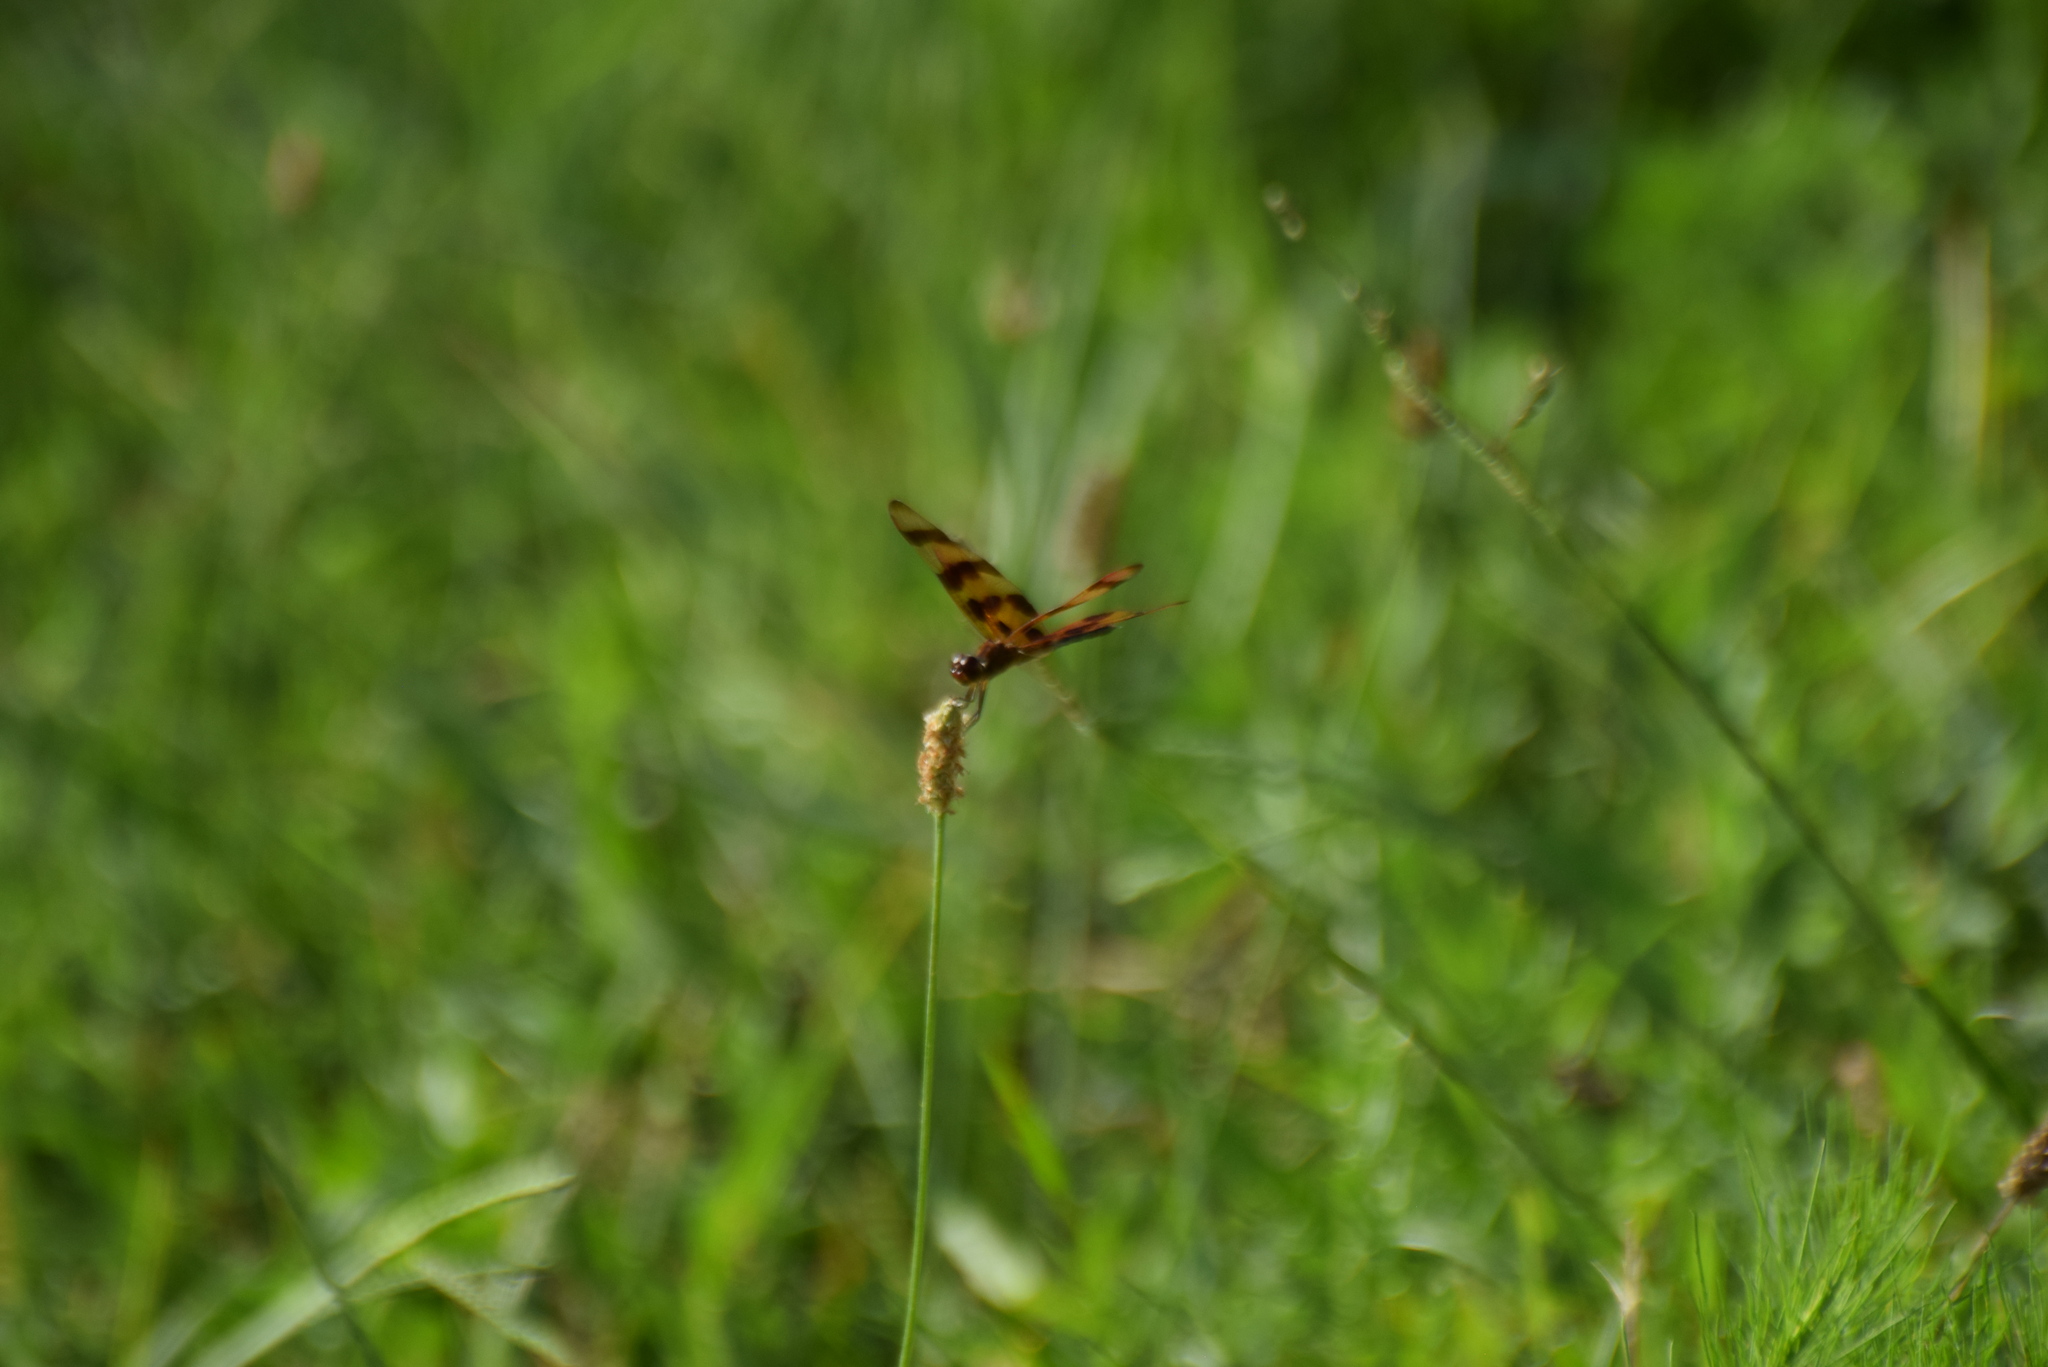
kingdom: Animalia
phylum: Arthropoda
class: Insecta
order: Odonata
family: Libellulidae
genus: Celithemis
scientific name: Celithemis eponina
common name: Halloween pennant
